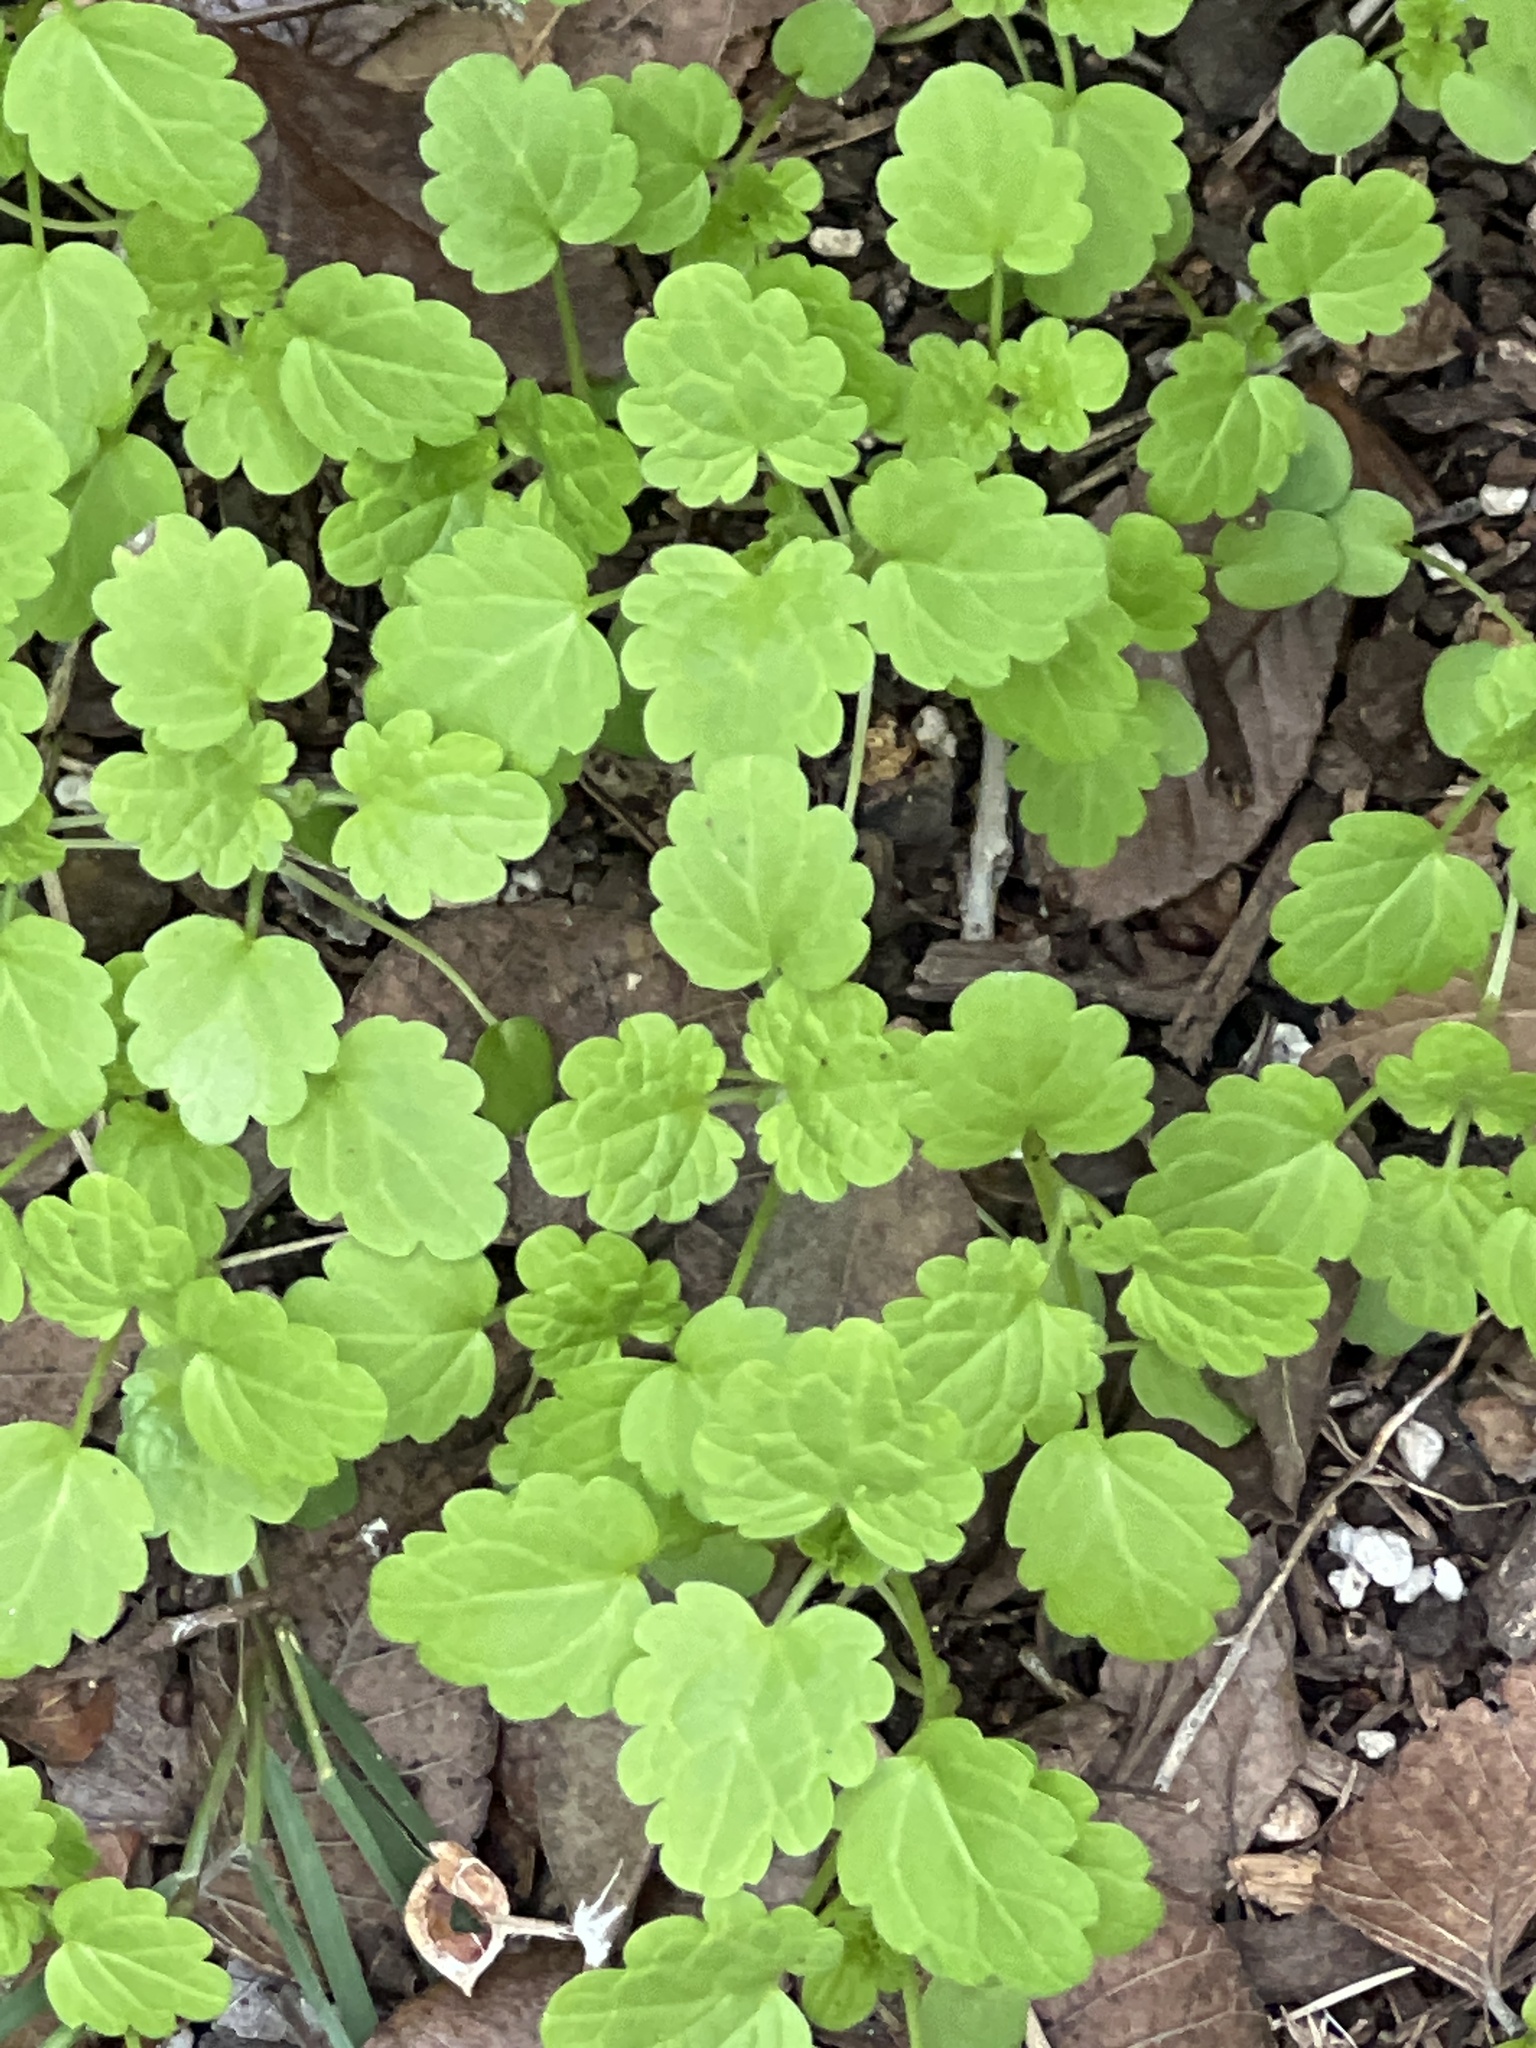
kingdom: Plantae
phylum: Tracheophyta
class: Magnoliopsida
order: Lamiales
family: Lamiaceae
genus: Lamium
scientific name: Lamium amplexicaule
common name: Henbit dead-nettle
